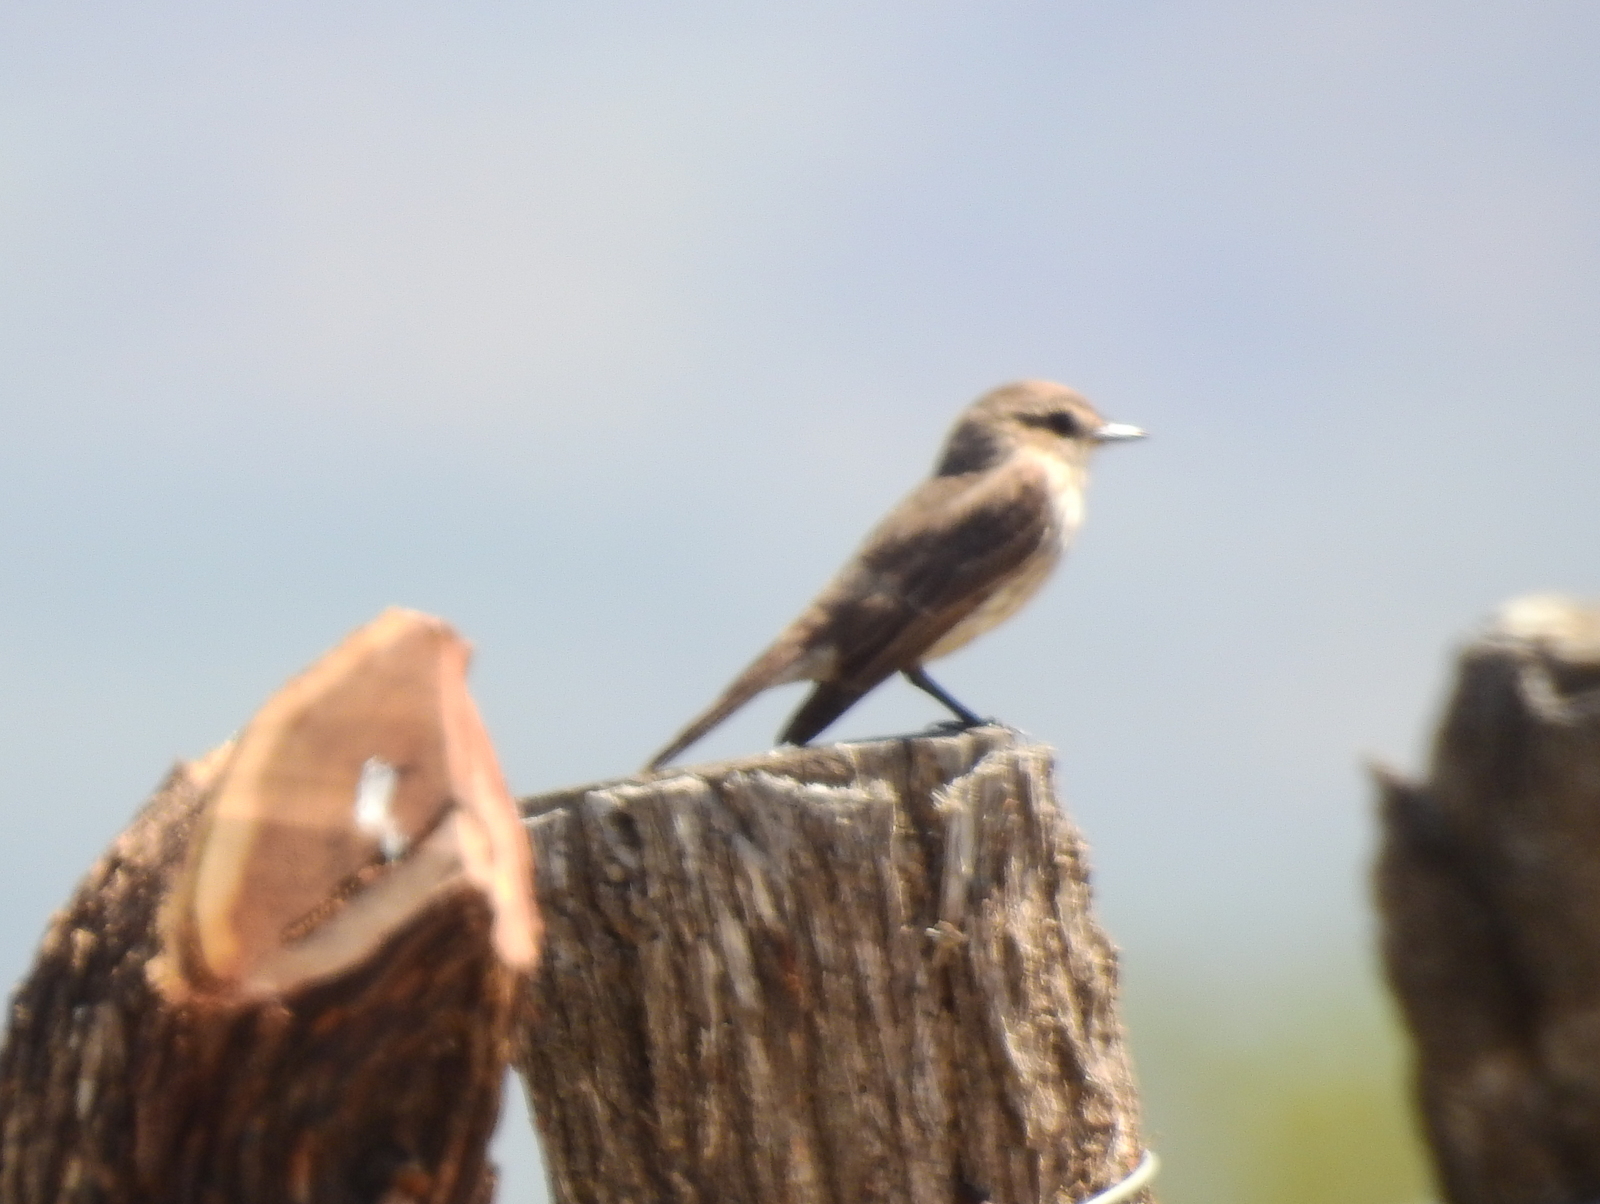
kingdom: Animalia
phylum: Chordata
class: Aves
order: Passeriformes
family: Tyrannidae
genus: Pyrocephalus
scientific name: Pyrocephalus rubinus
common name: Vermilion flycatcher
